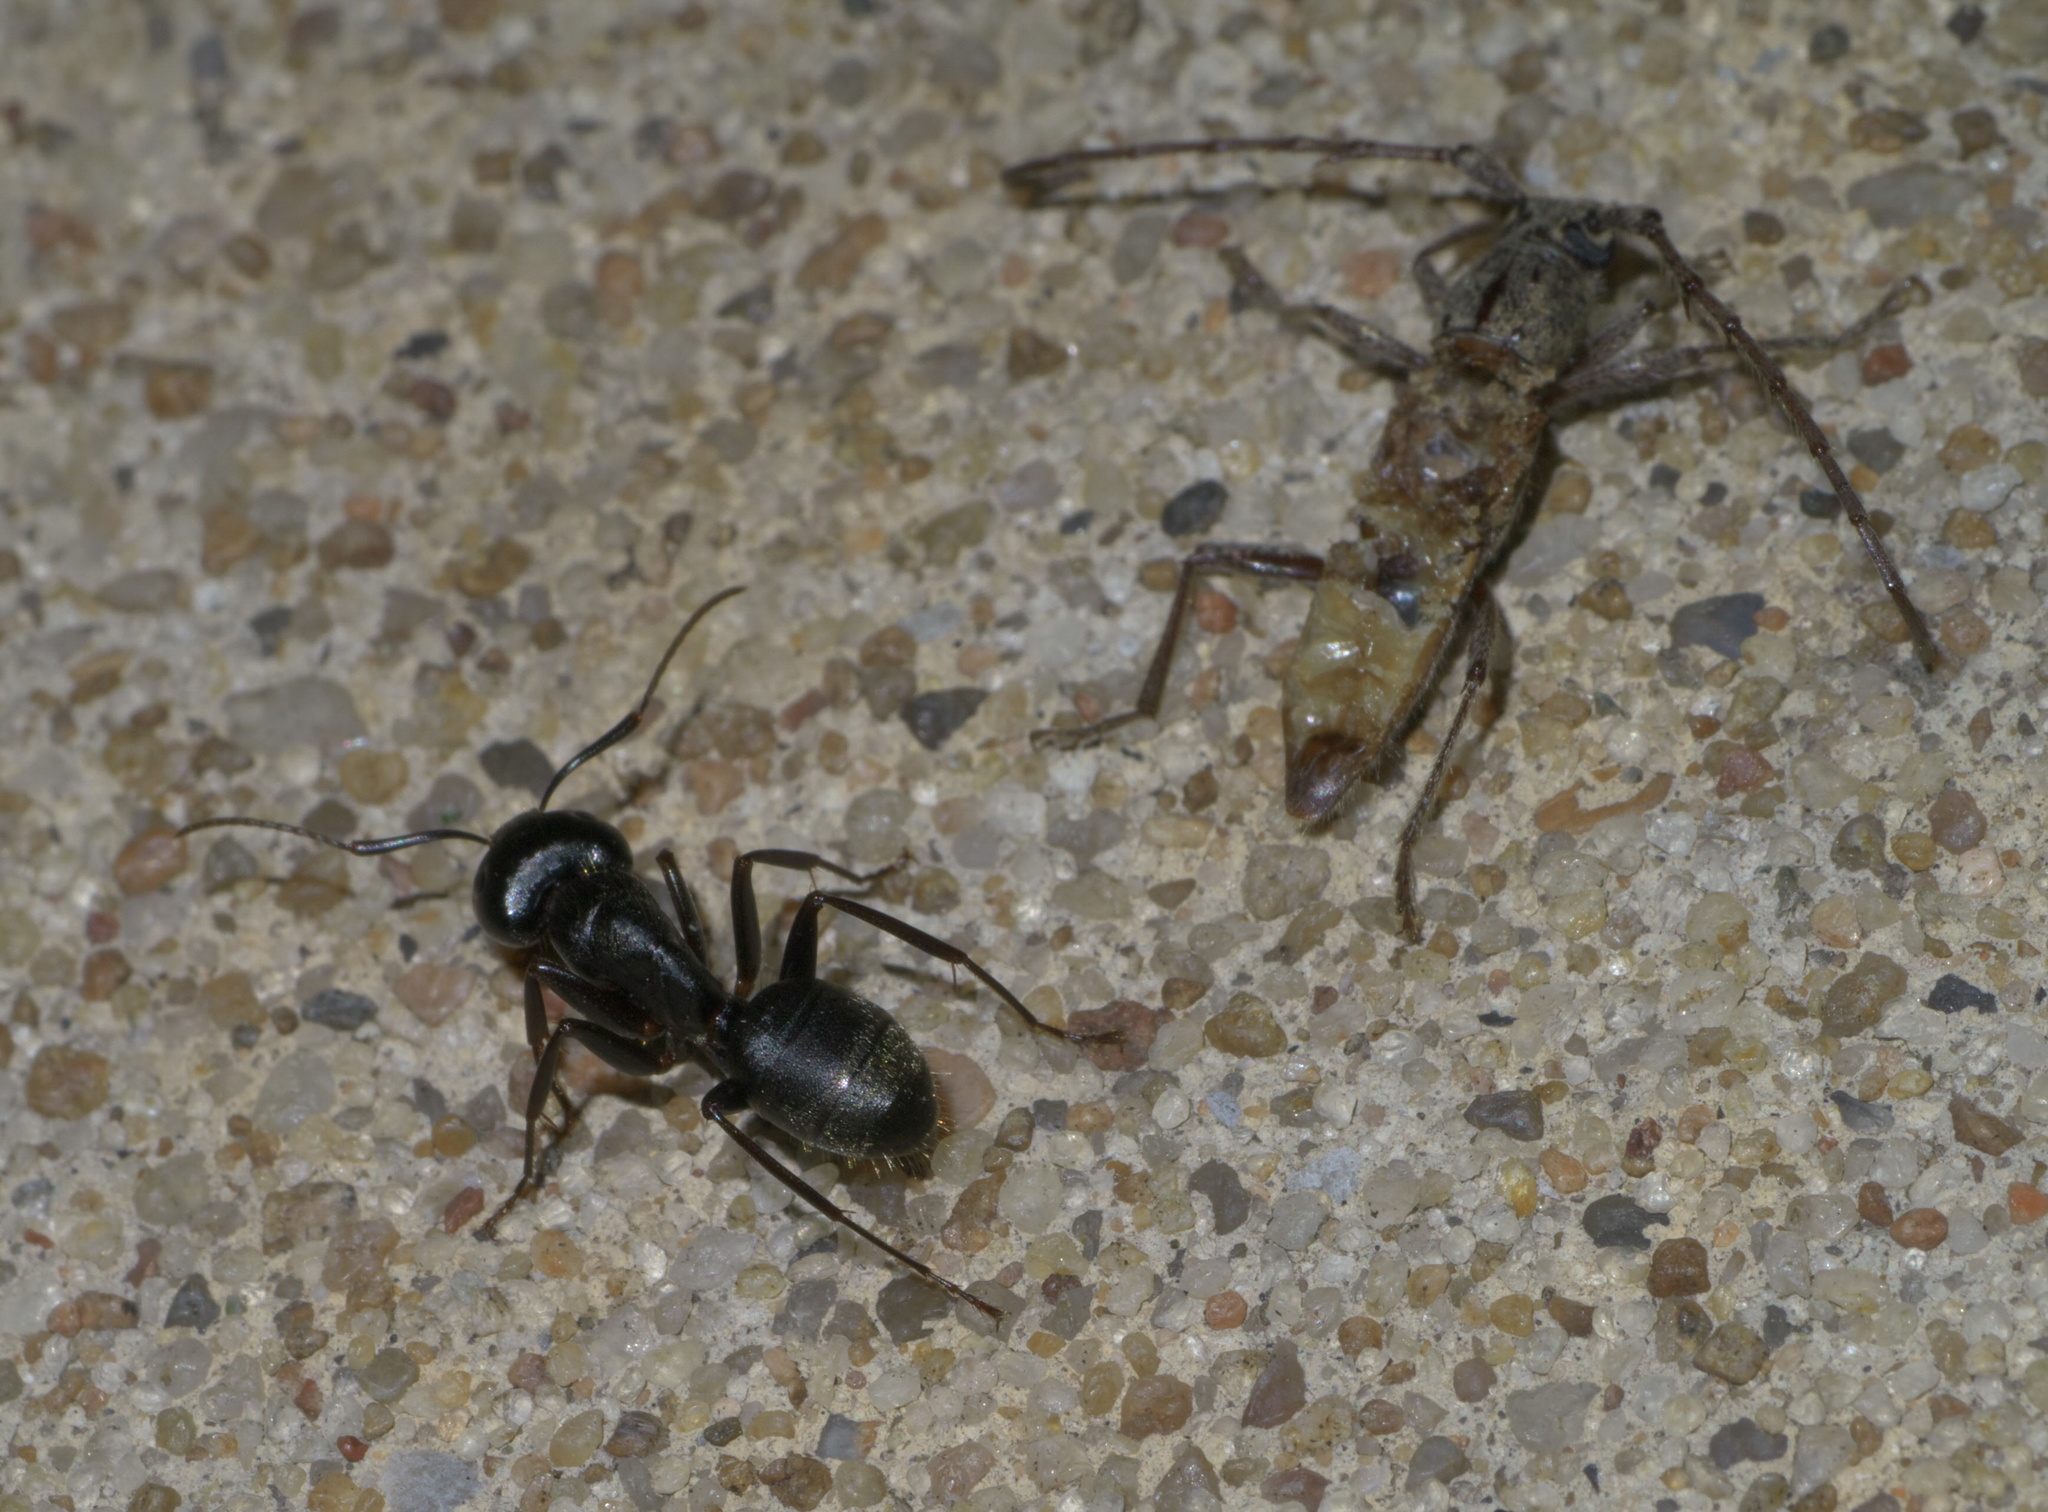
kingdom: Animalia
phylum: Arthropoda
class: Insecta
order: Hymenoptera
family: Formicidae
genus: Camponotus
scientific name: Camponotus pennsylvanicus
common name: Black carpenter ant
